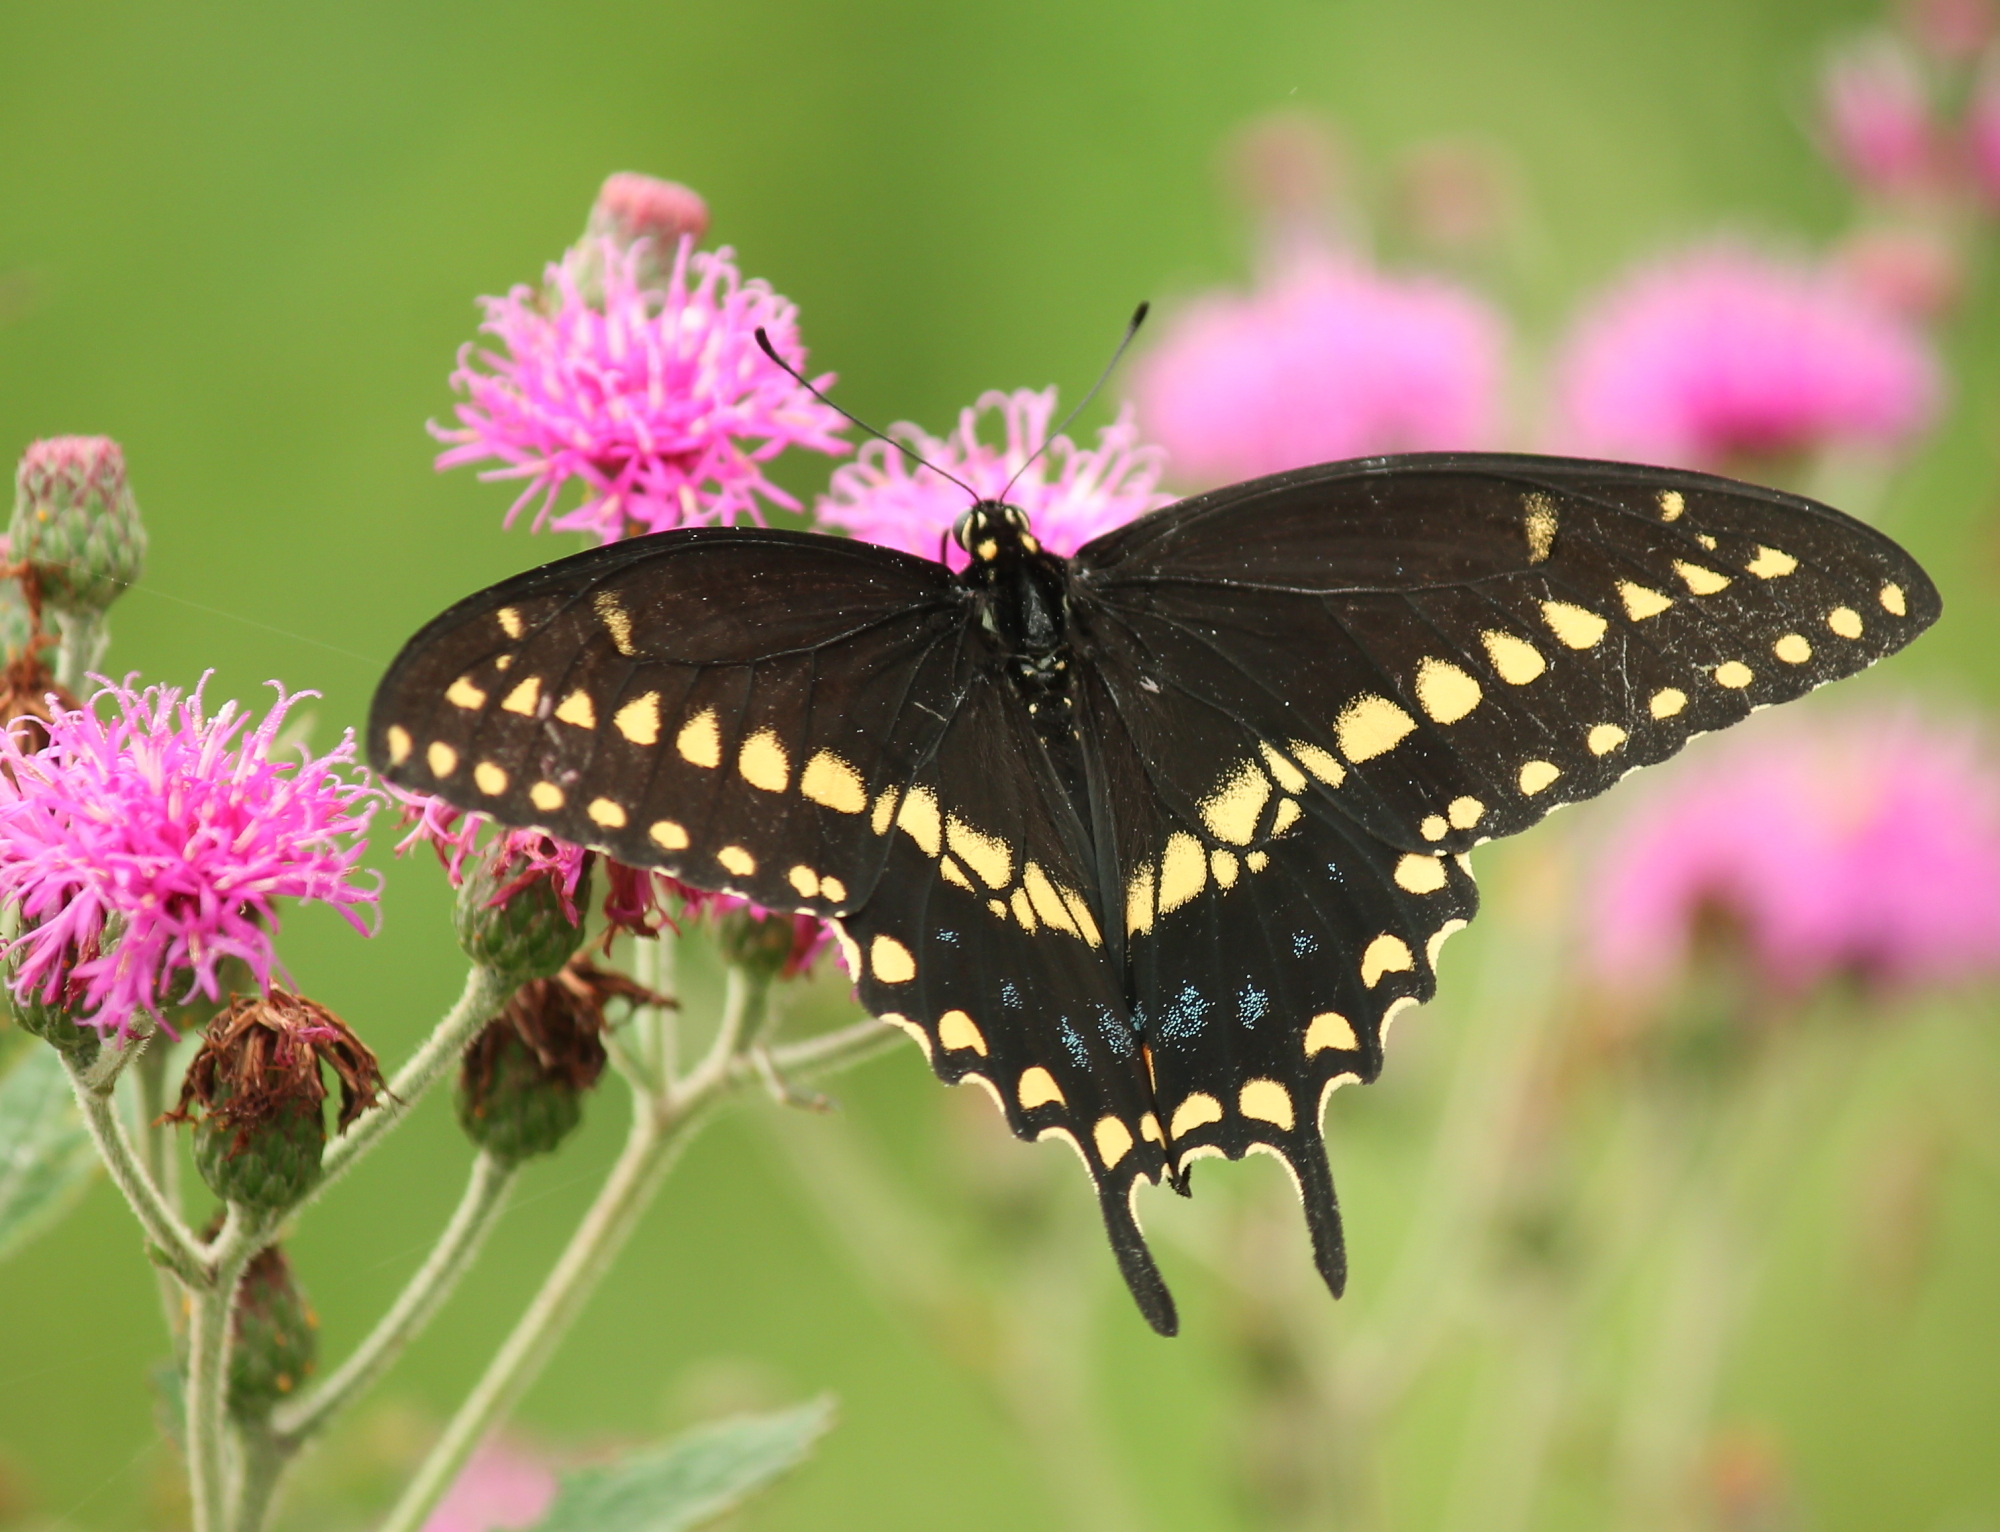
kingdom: Animalia
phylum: Arthropoda
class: Insecta
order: Lepidoptera
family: Papilionidae
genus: Papilio
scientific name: Papilio polyxenes
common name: Black swallowtail
